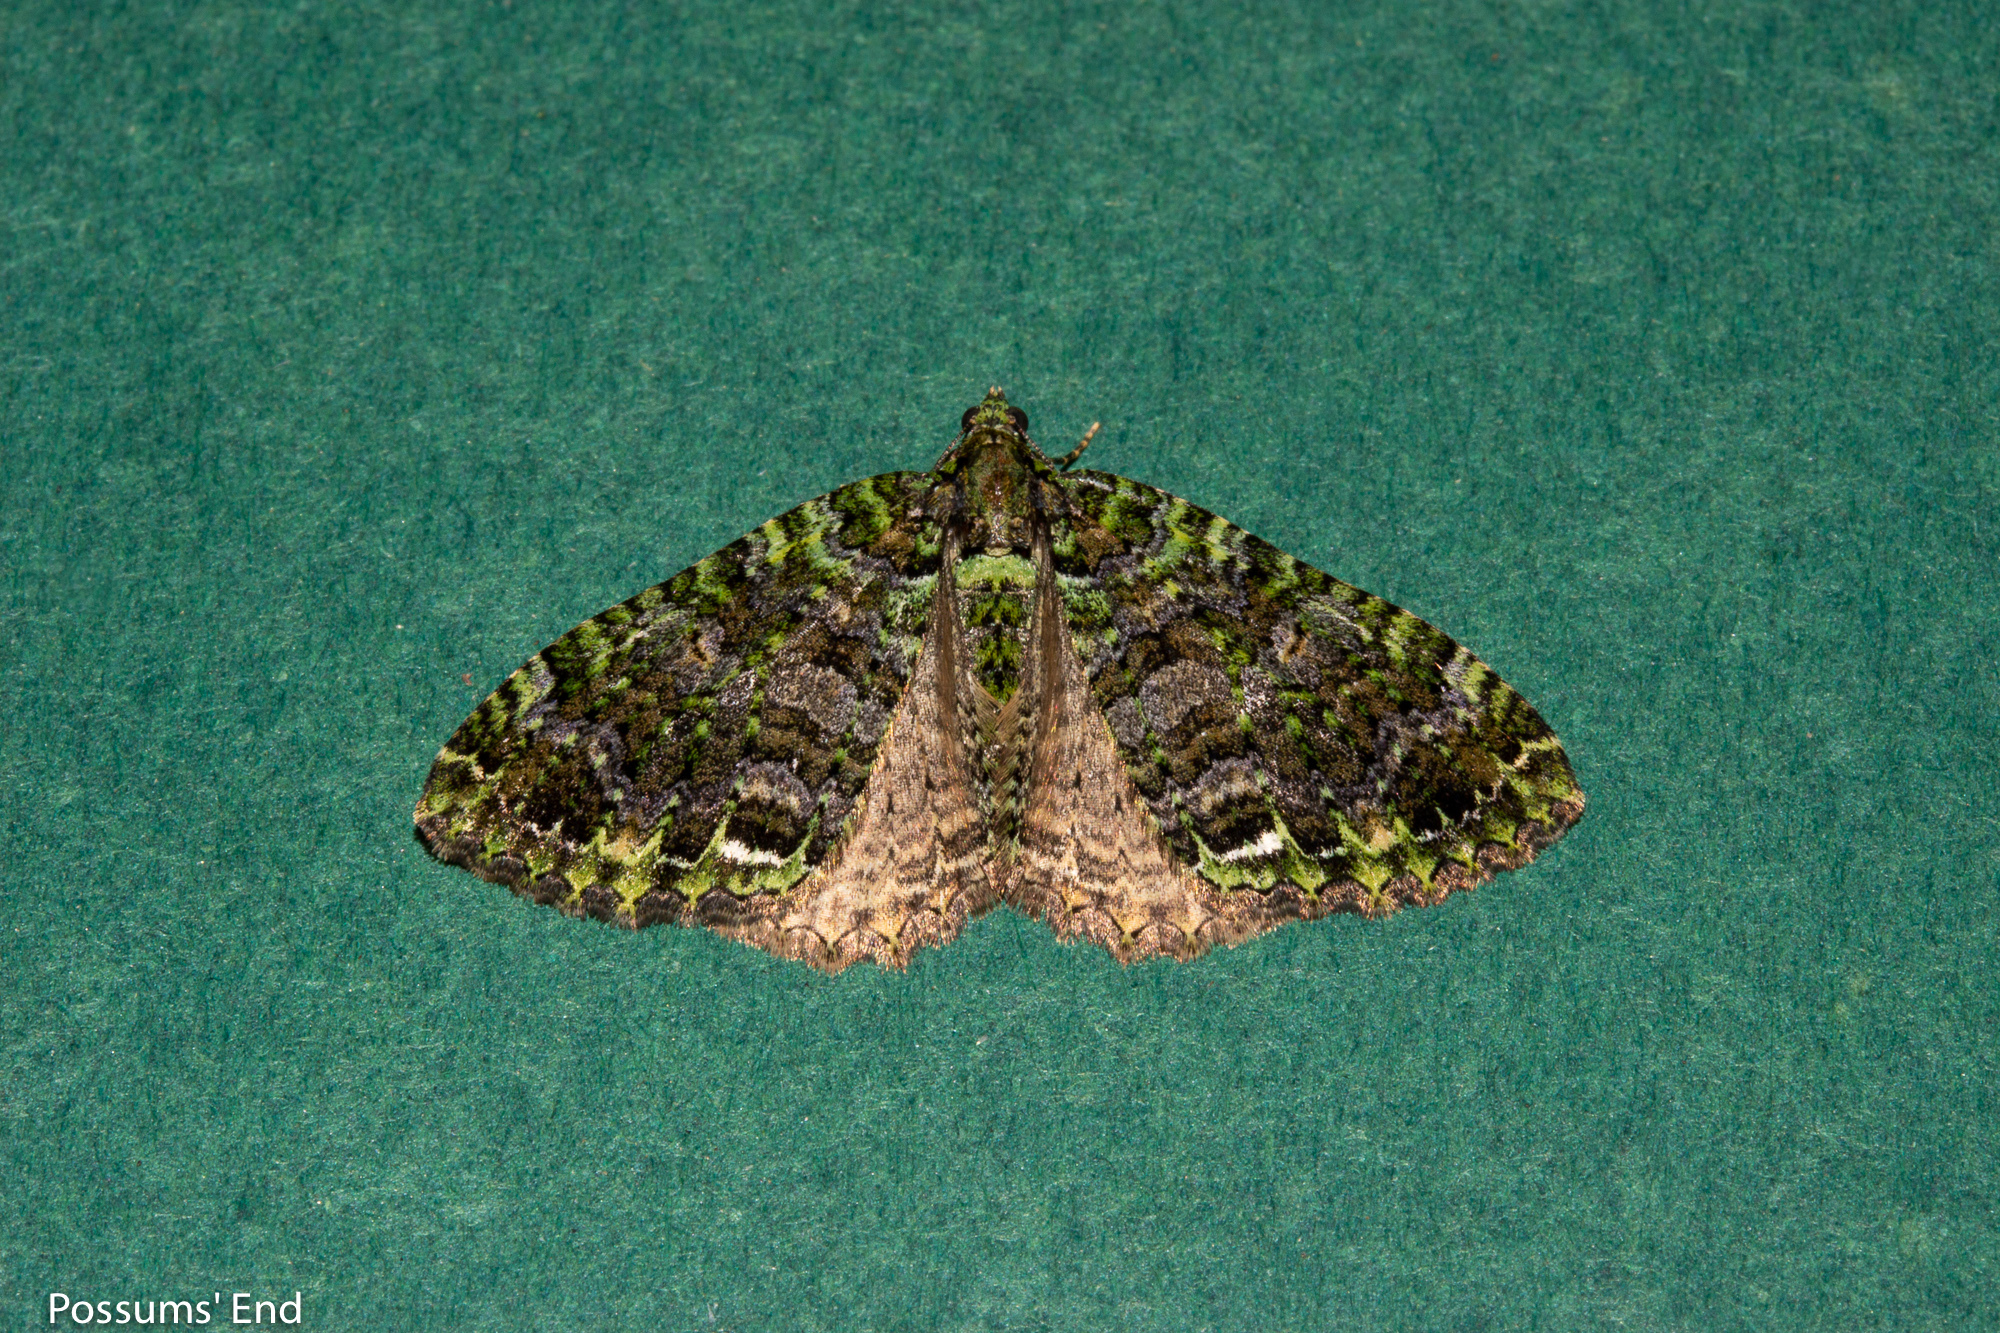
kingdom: Animalia
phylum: Arthropoda
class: Insecta
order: Lepidoptera
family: Geometridae
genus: Austrocidaria
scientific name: Austrocidaria similata
